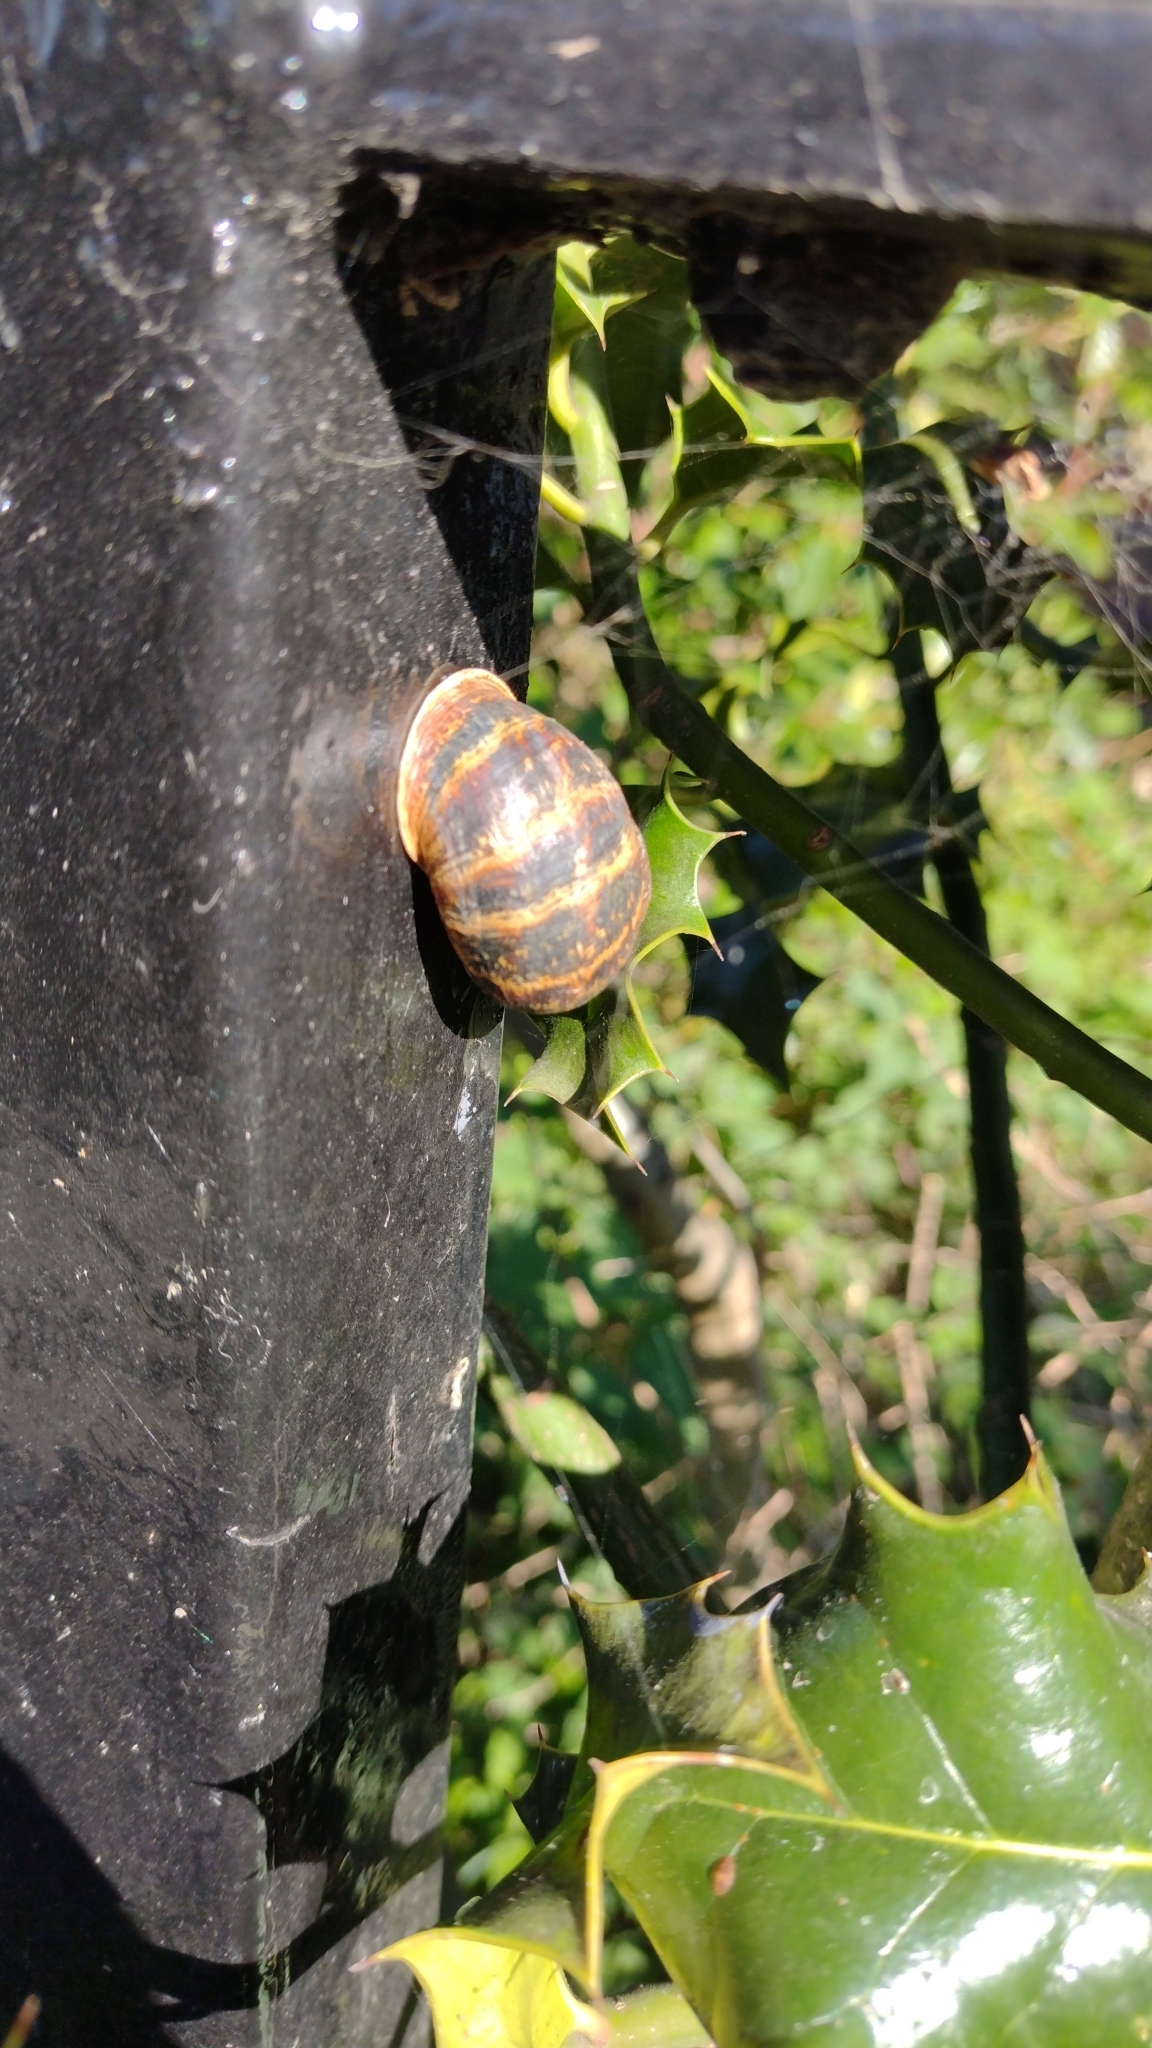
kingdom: Animalia
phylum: Mollusca
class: Gastropoda
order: Stylommatophora
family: Helicidae
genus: Cornu
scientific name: Cornu aspersum
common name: Brown garden snail
